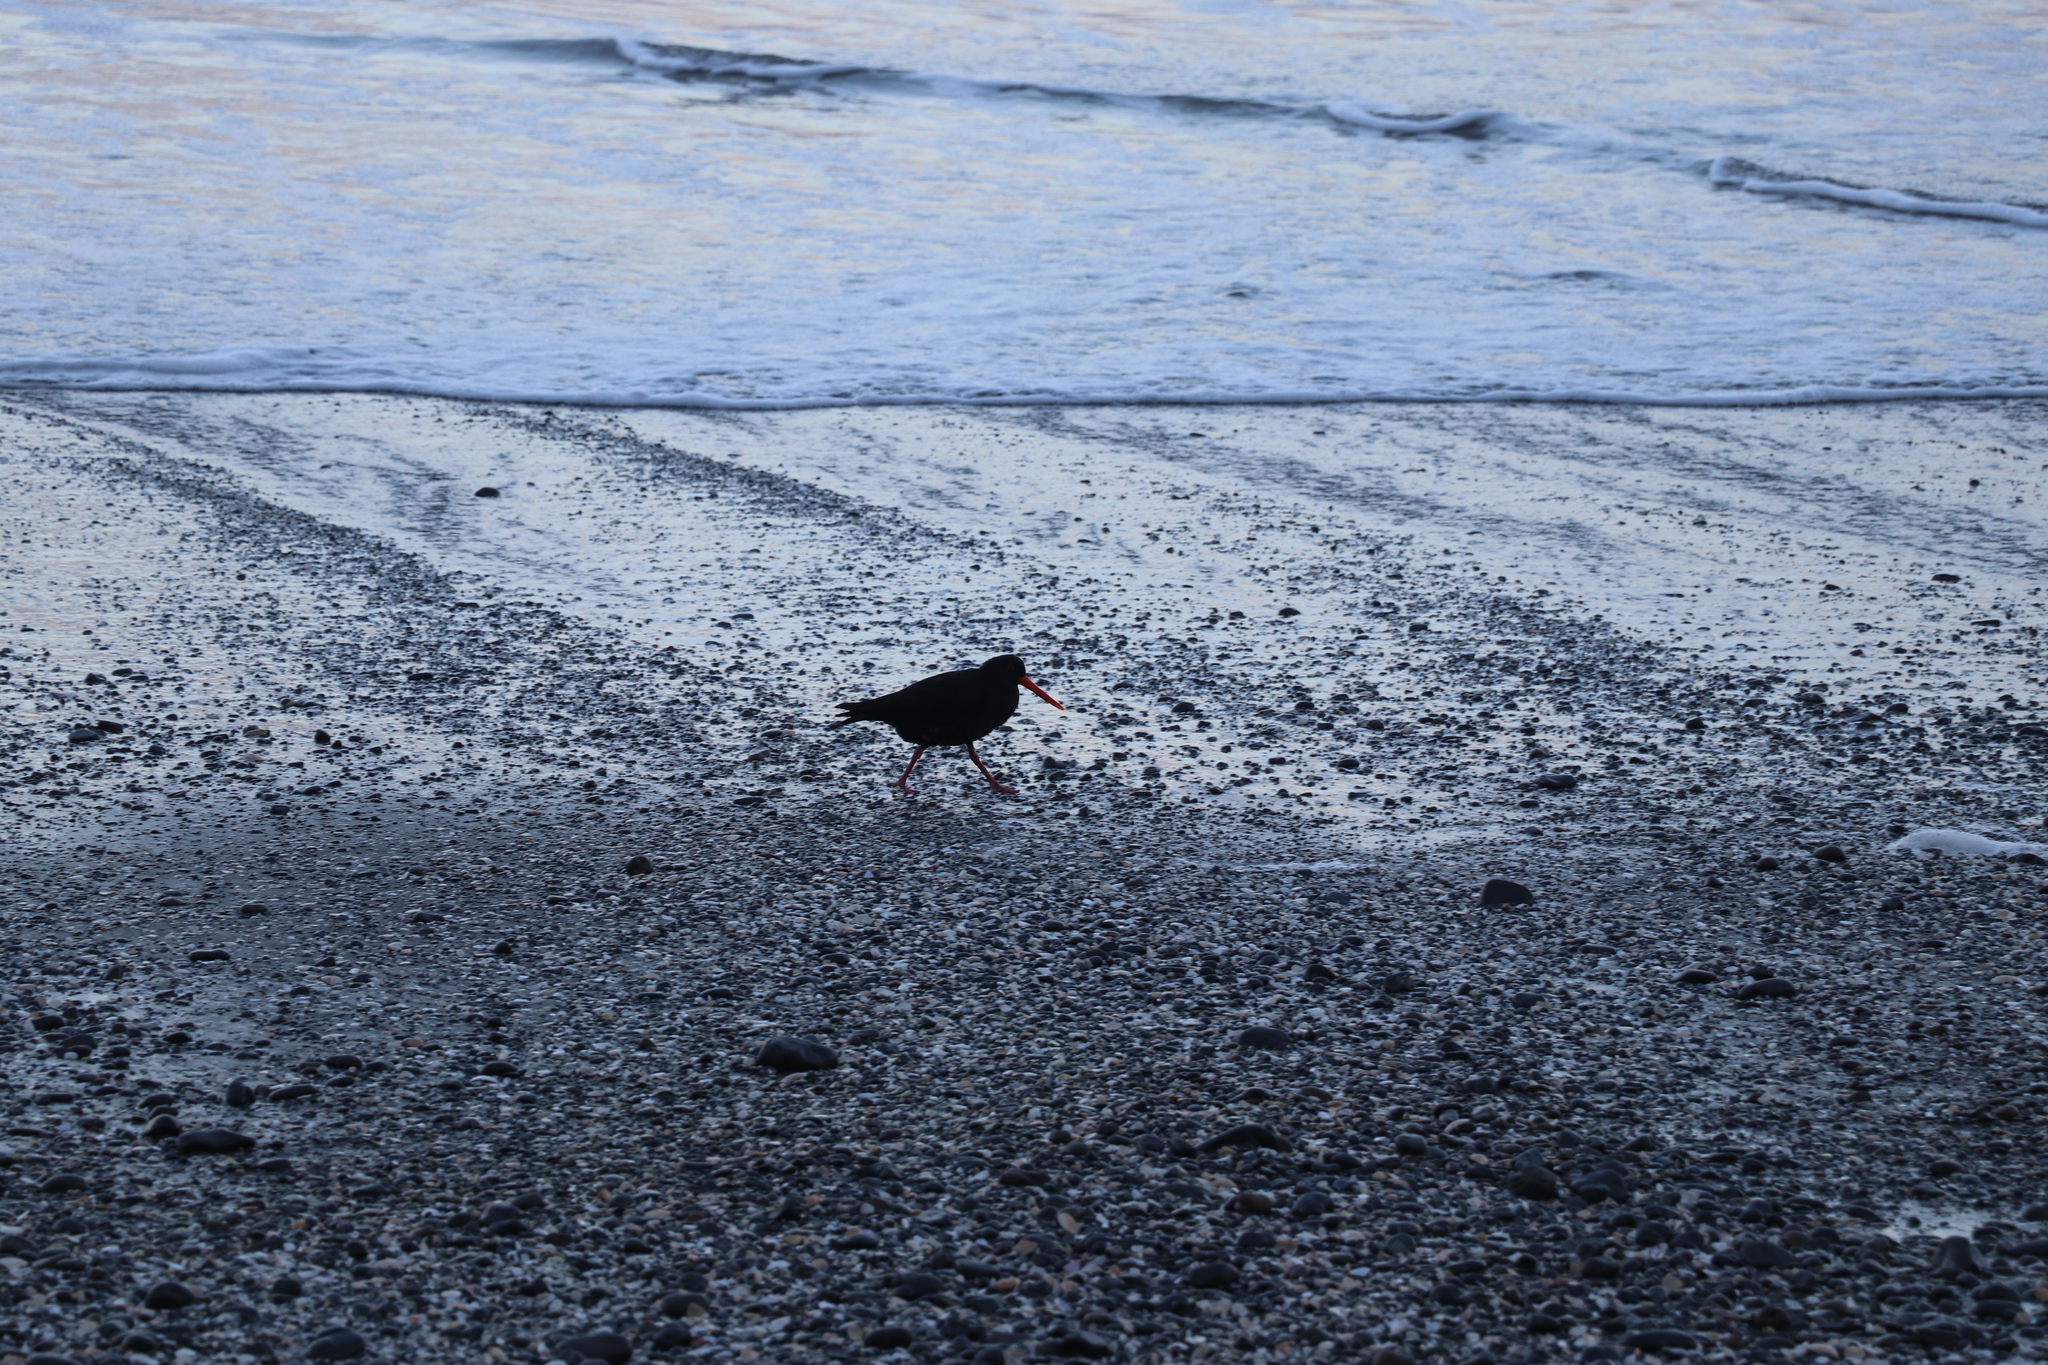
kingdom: Animalia
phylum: Chordata
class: Aves
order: Charadriiformes
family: Haematopodidae
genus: Haematopus
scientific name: Haematopus unicolor
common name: Variable oystercatcher
